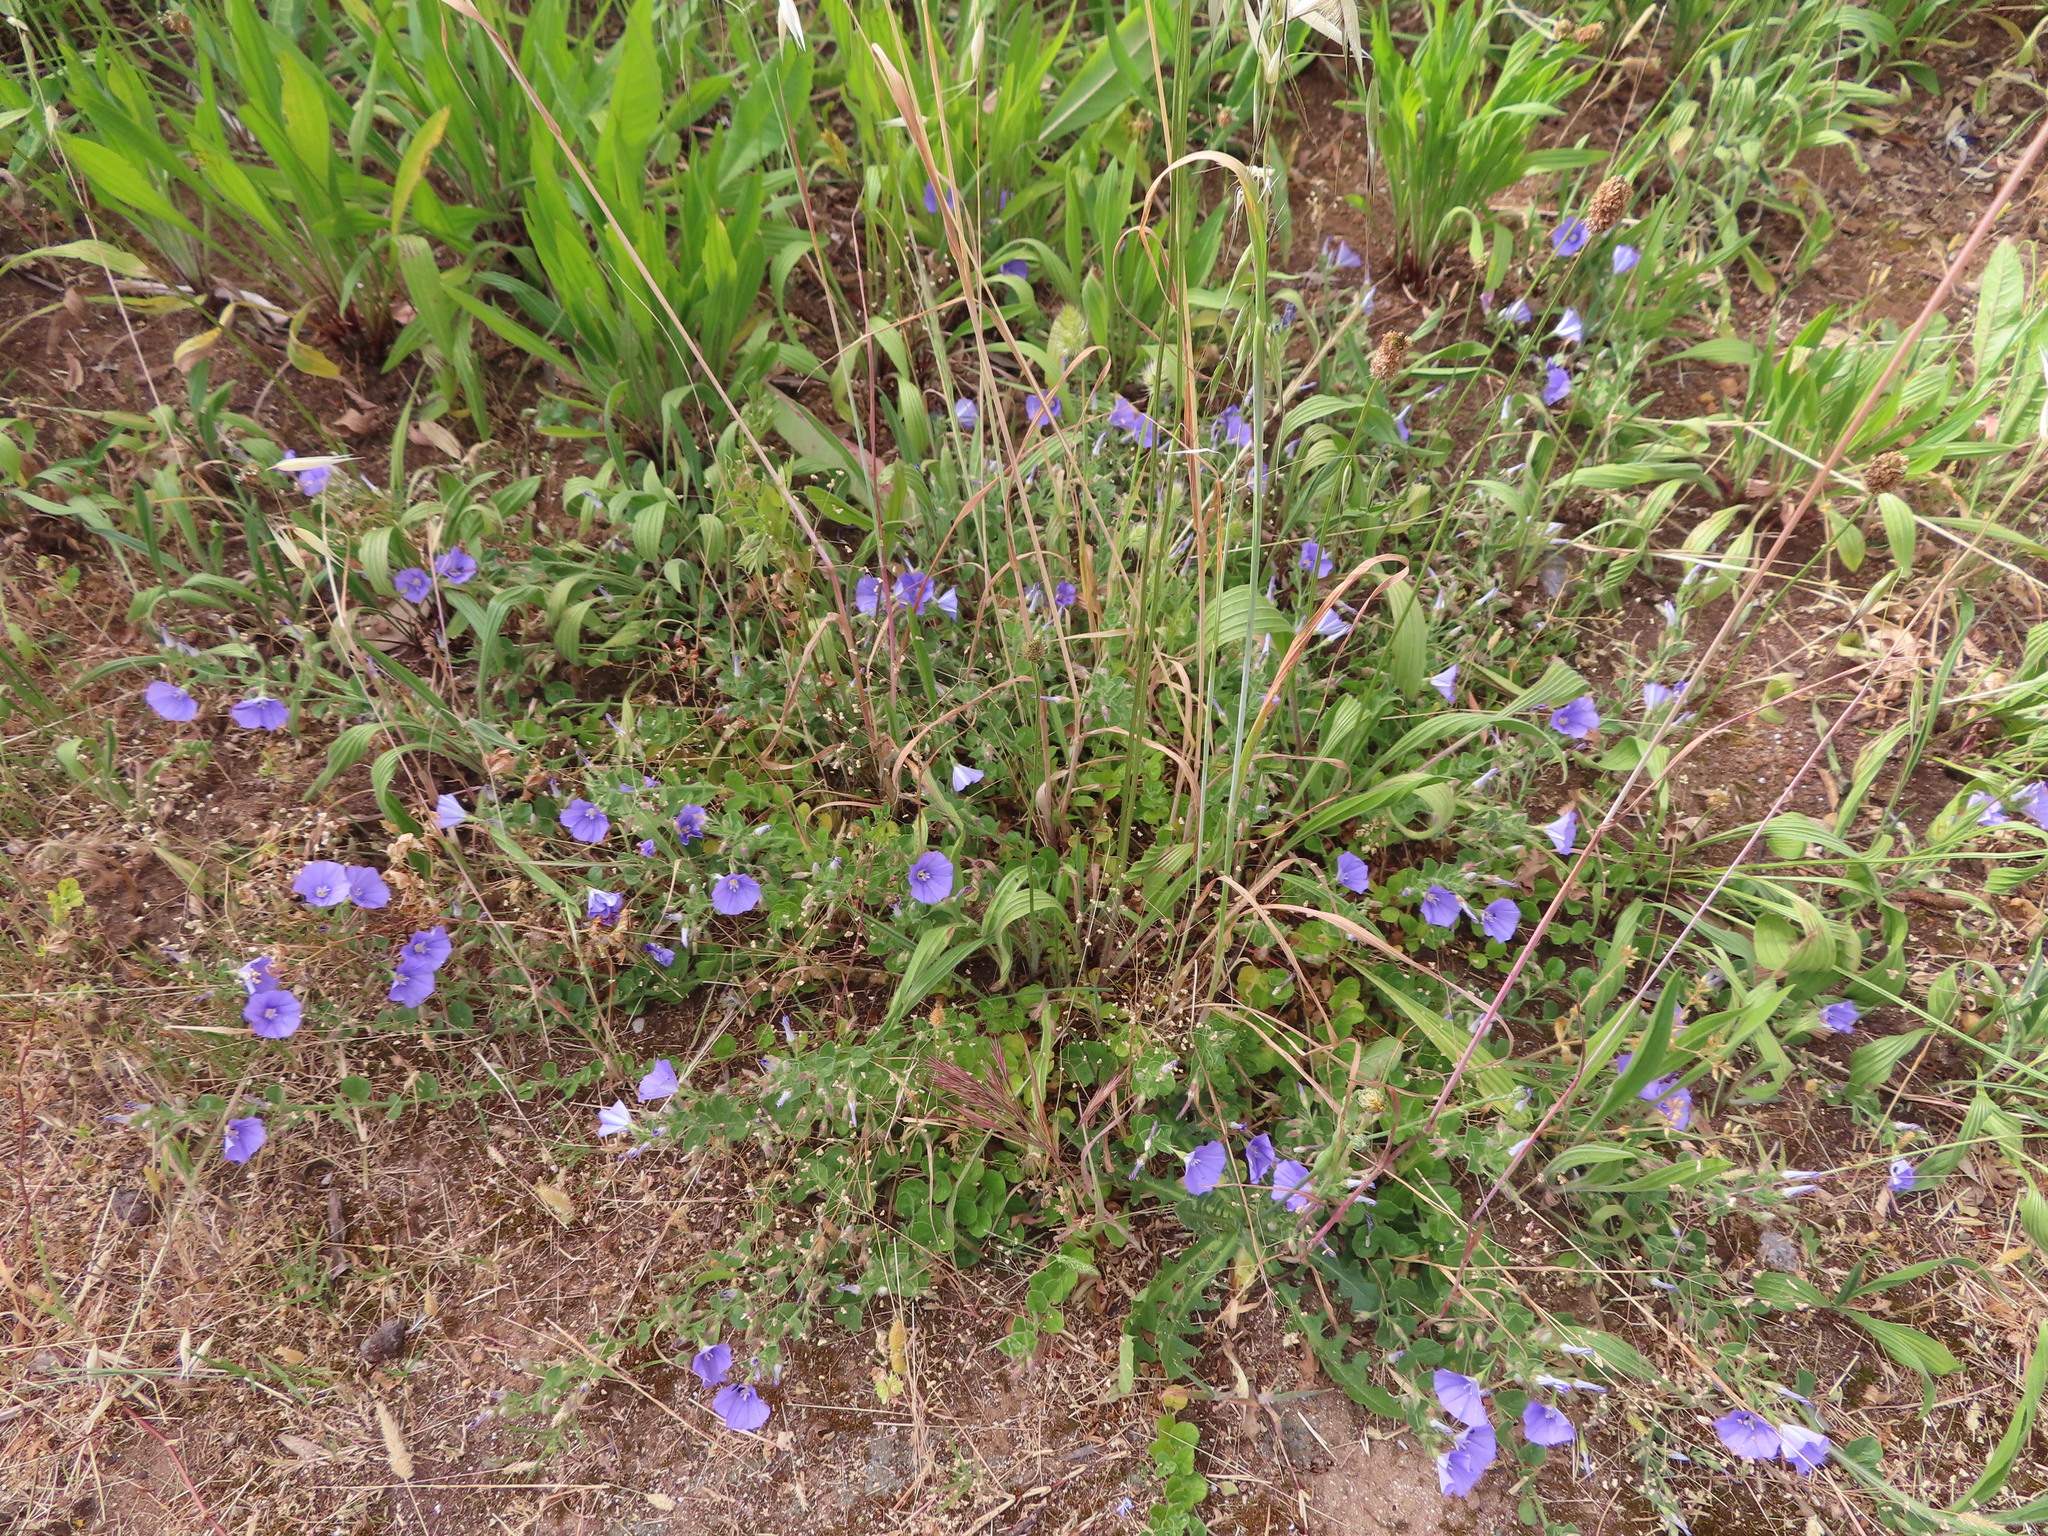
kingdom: Plantae
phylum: Tracheophyta
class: Magnoliopsida
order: Solanales
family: Convolvulaceae
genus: Convolvulus
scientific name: Convolvulus sabatius
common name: Ground blue-convolvulus
